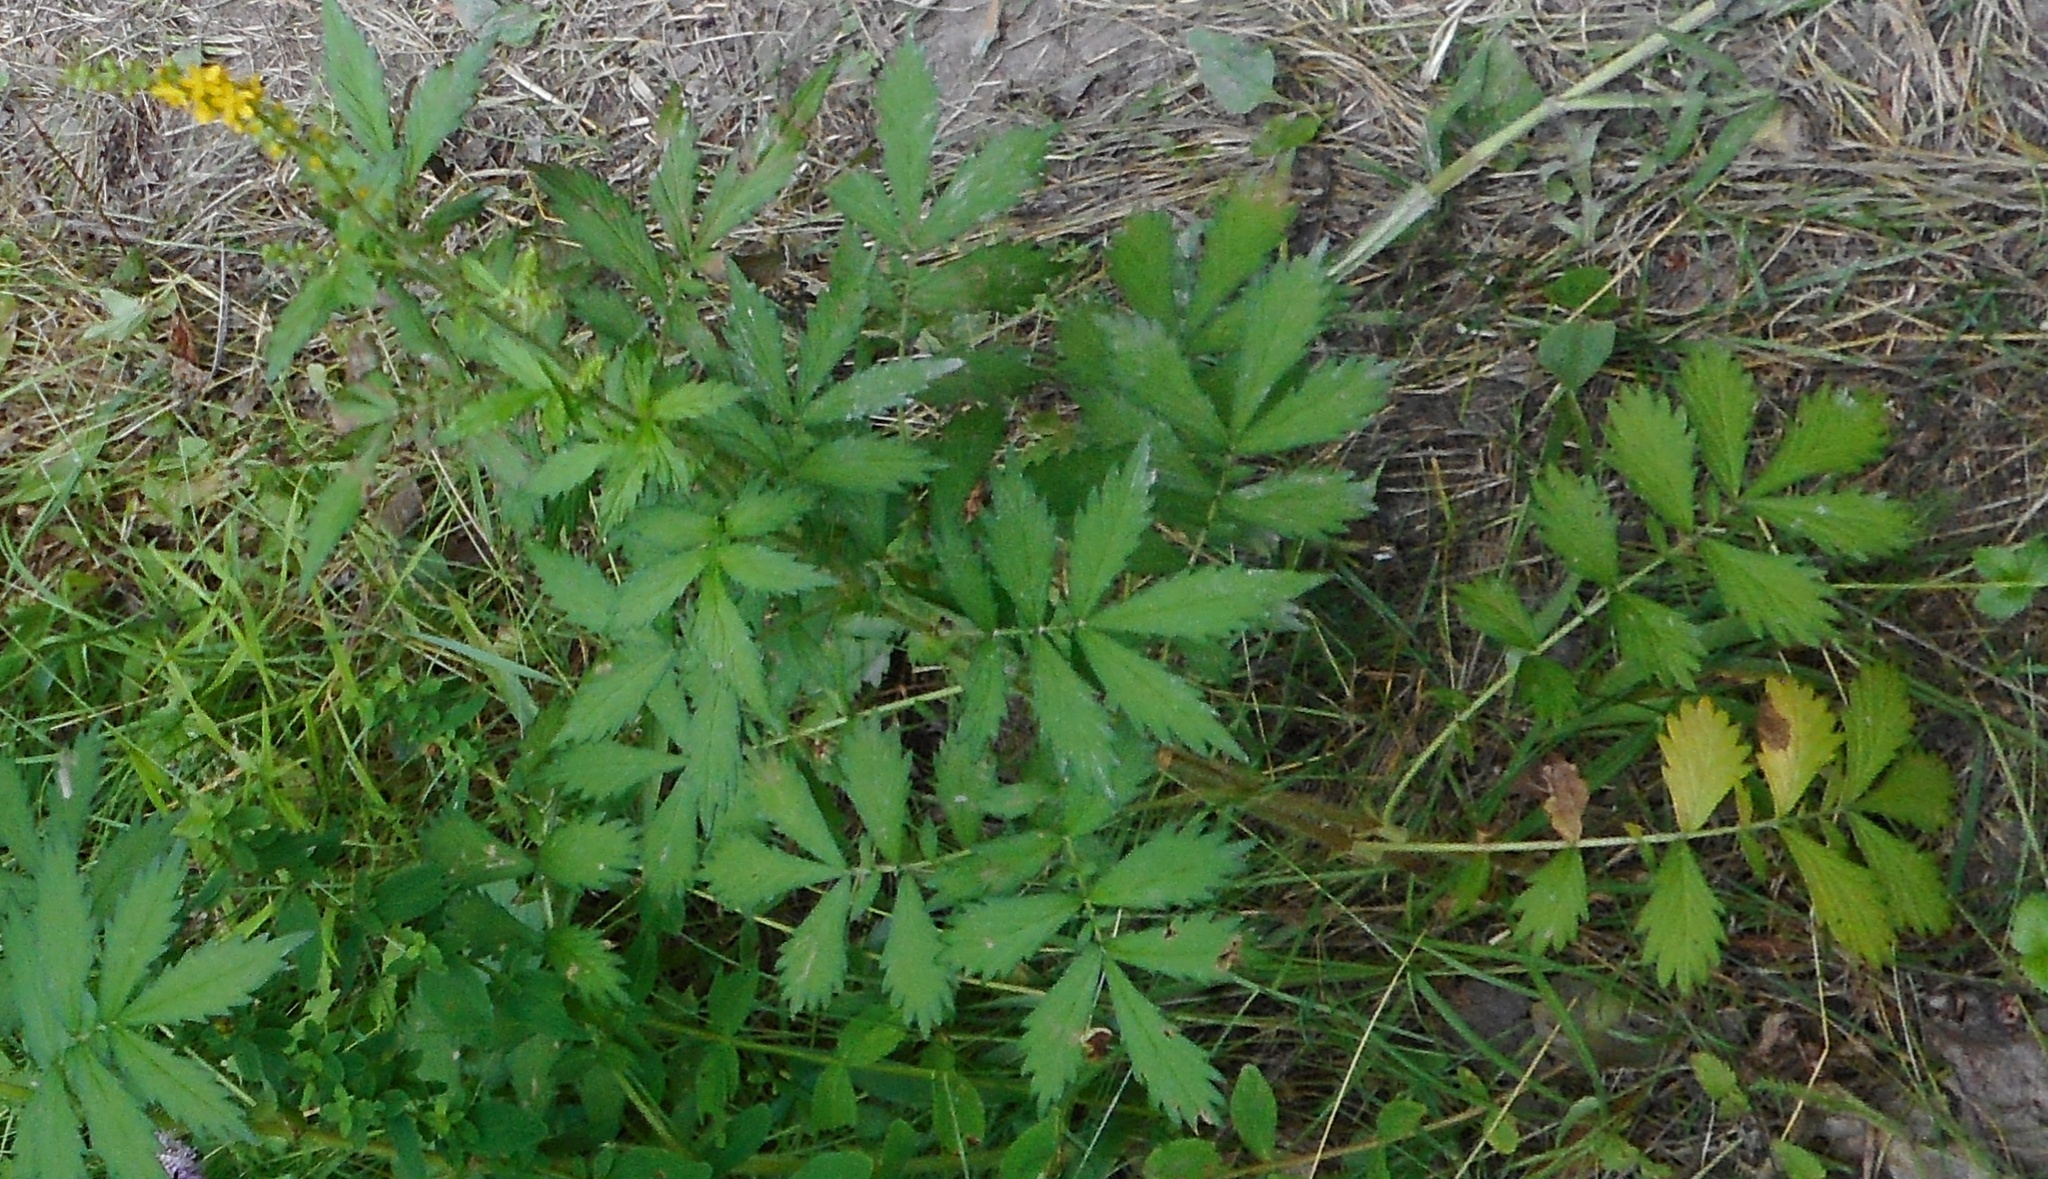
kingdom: Plantae
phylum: Tracheophyta
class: Magnoliopsida
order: Rosales
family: Rosaceae
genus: Agrimonia
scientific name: Agrimonia pilosa
